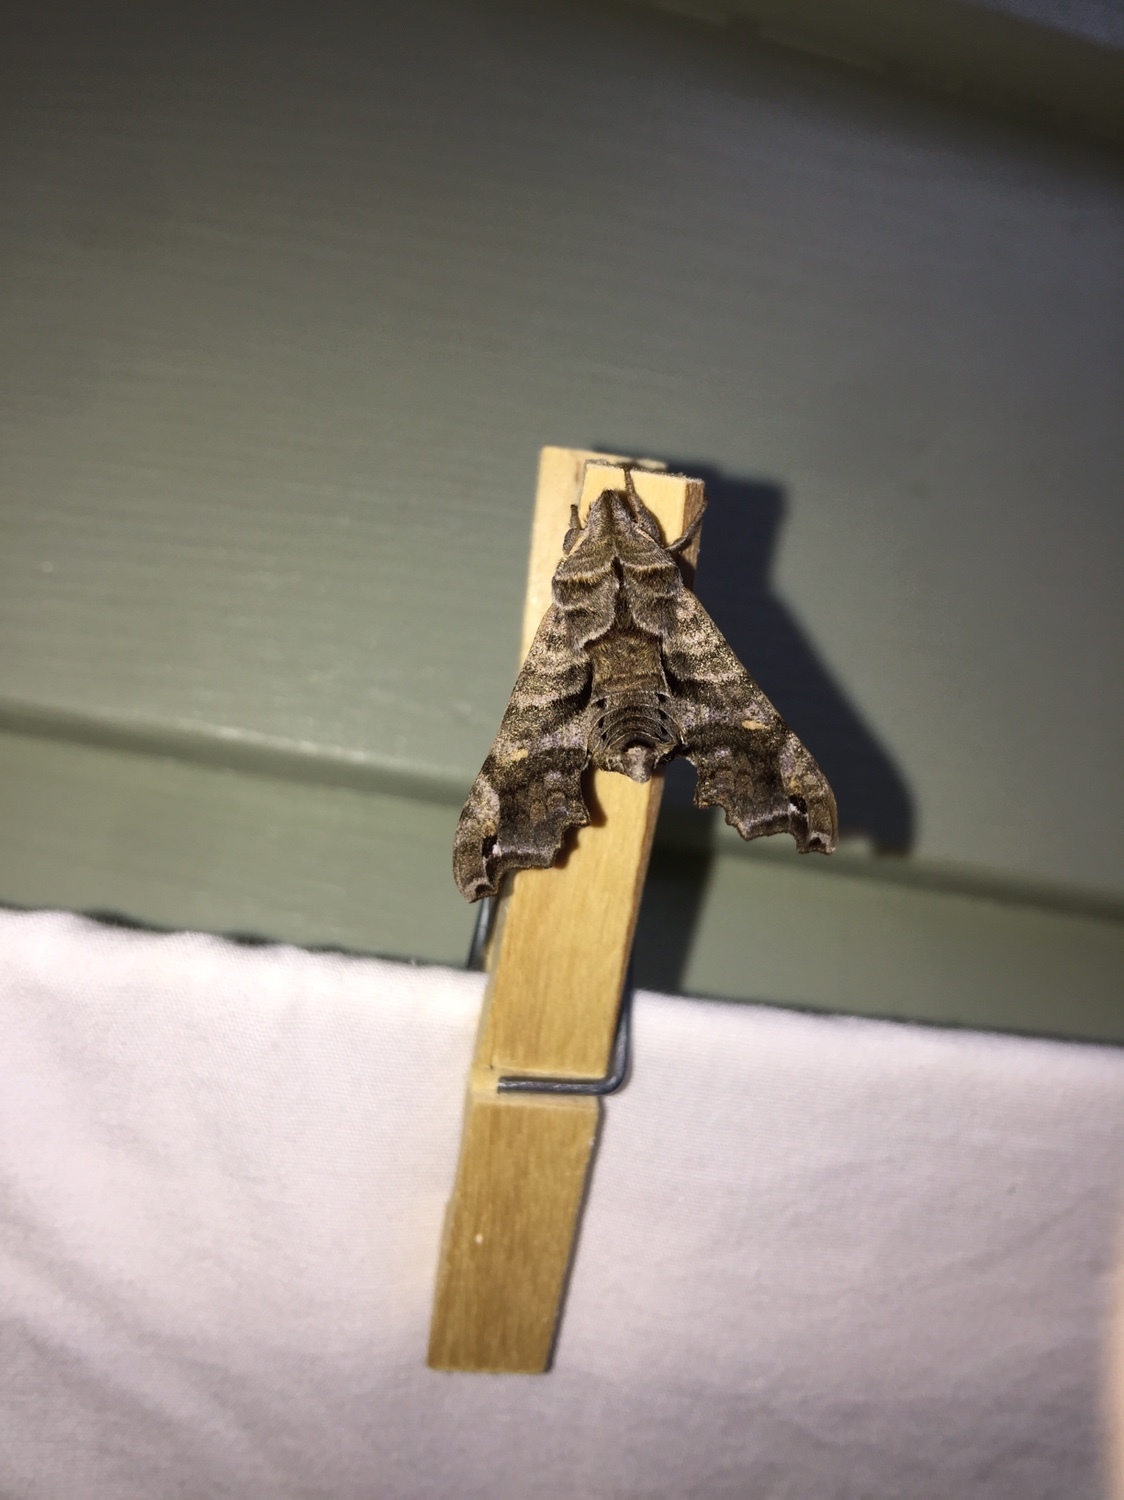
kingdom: Animalia
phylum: Arthropoda
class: Insecta
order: Lepidoptera
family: Sphingidae
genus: Deidamia
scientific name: Deidamia inscriptum
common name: Lettered sphinx
